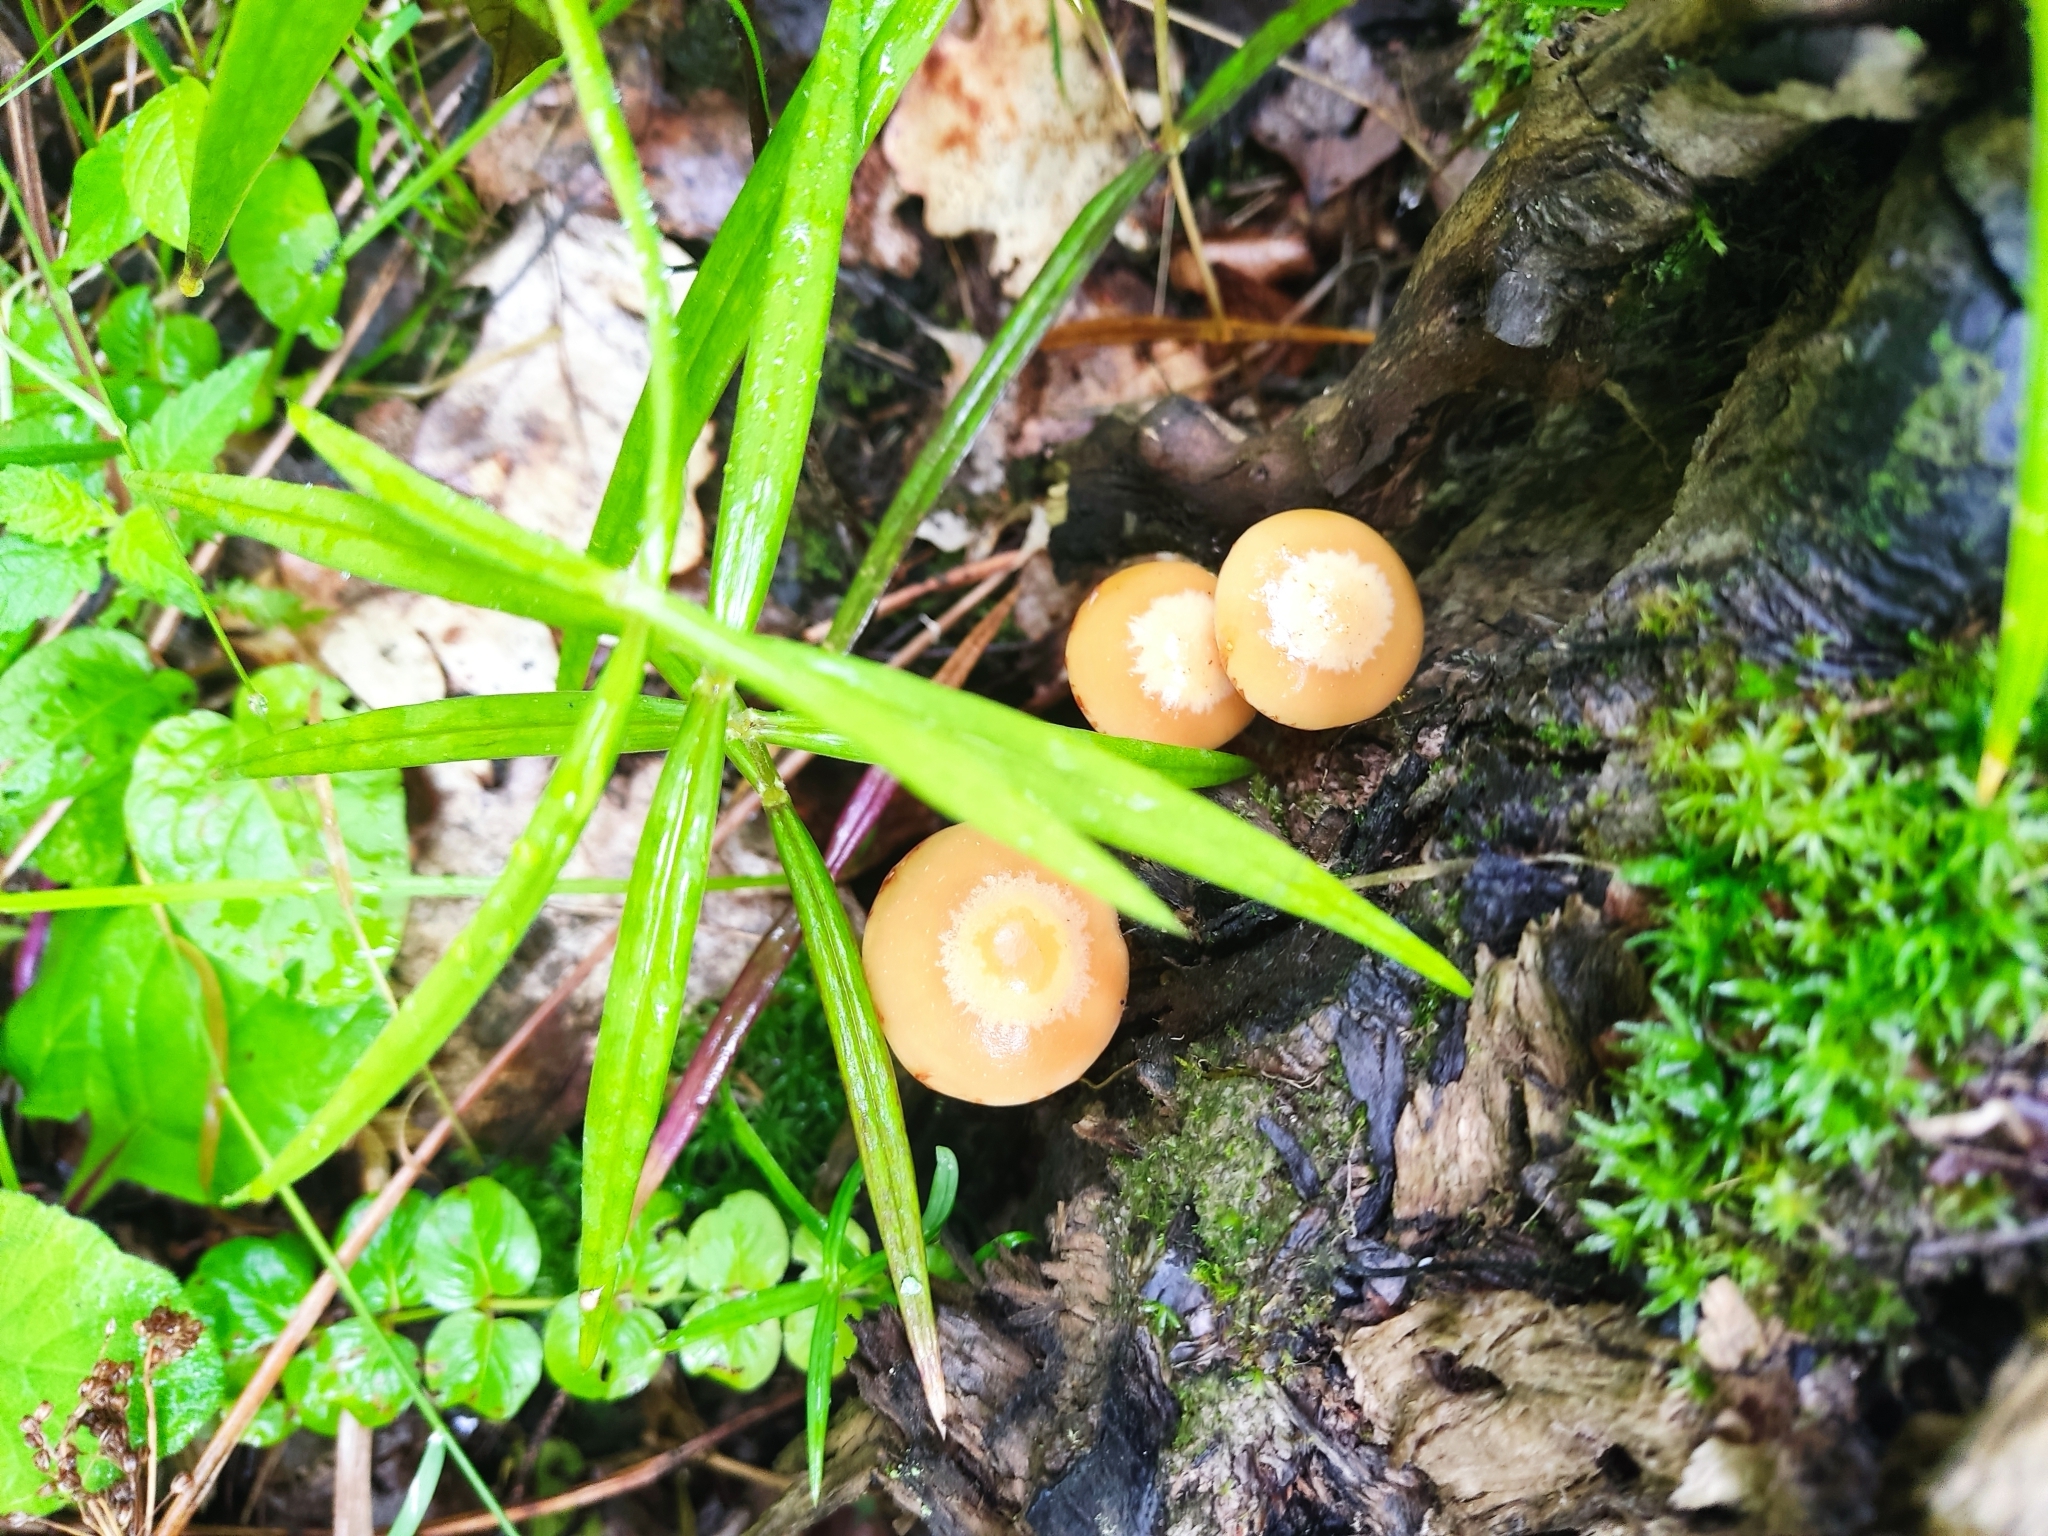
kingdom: Fungi
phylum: Basidiomycota
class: Agaricomycetes
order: Agaricales
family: Strophariaceae
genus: Kuehneromyces
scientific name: Kuehneromyces mutabilis
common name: Sheathed woodtuft
